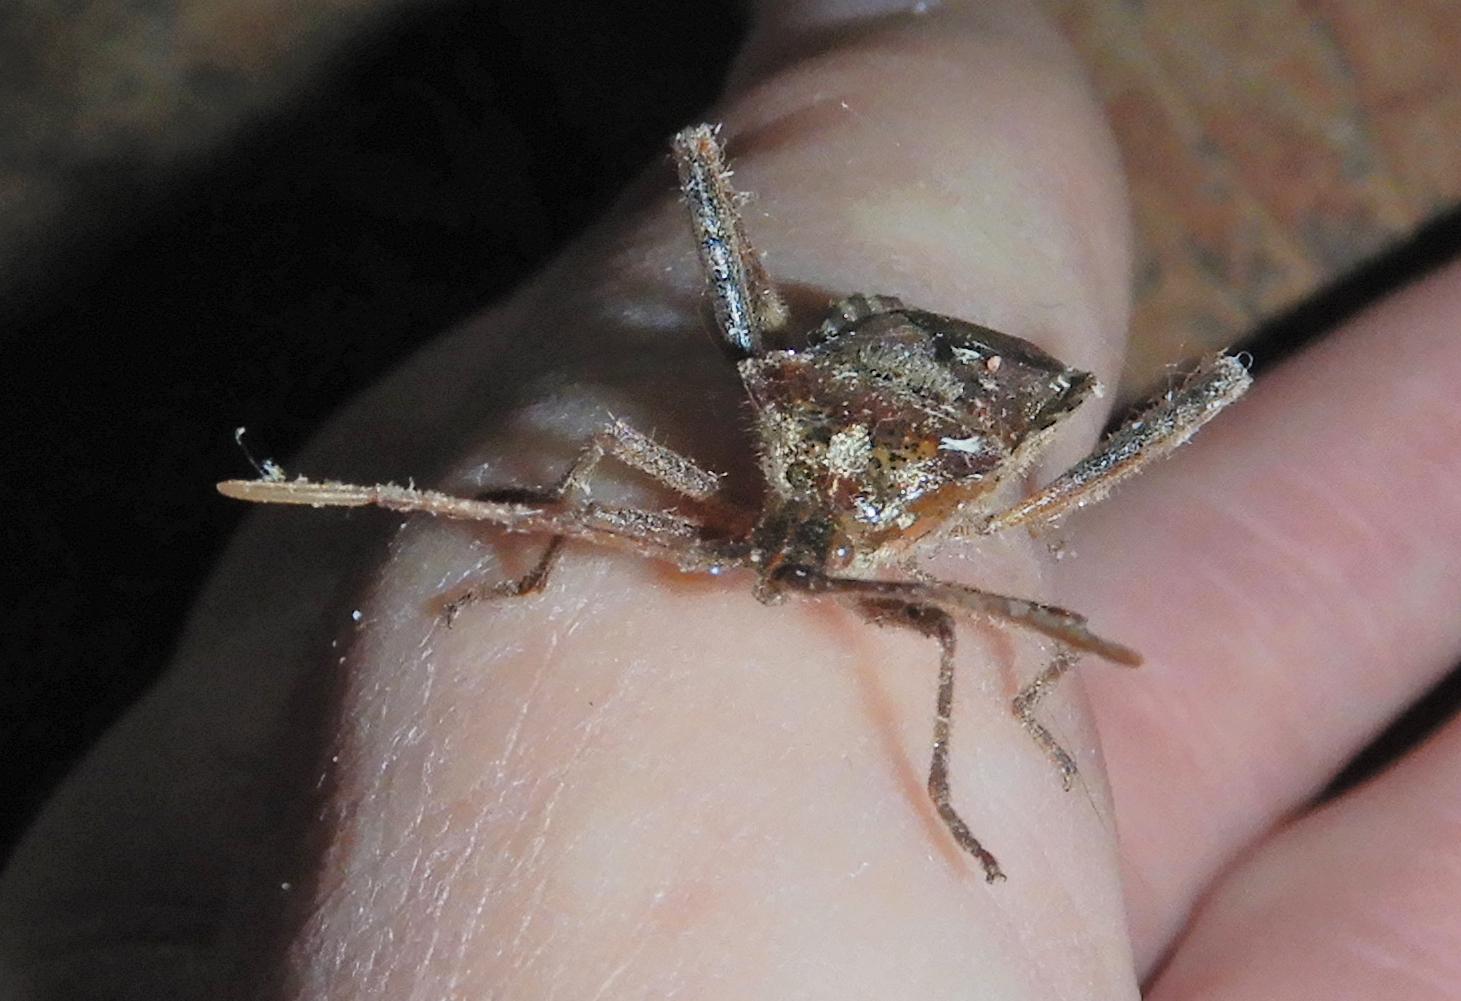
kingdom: Animalia
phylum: Arthropoda
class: Insecta
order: Hemiptera
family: Coreidae
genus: Leptoglossus
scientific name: Leptoglossus occidentalis
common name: Western conifer-seed bug
